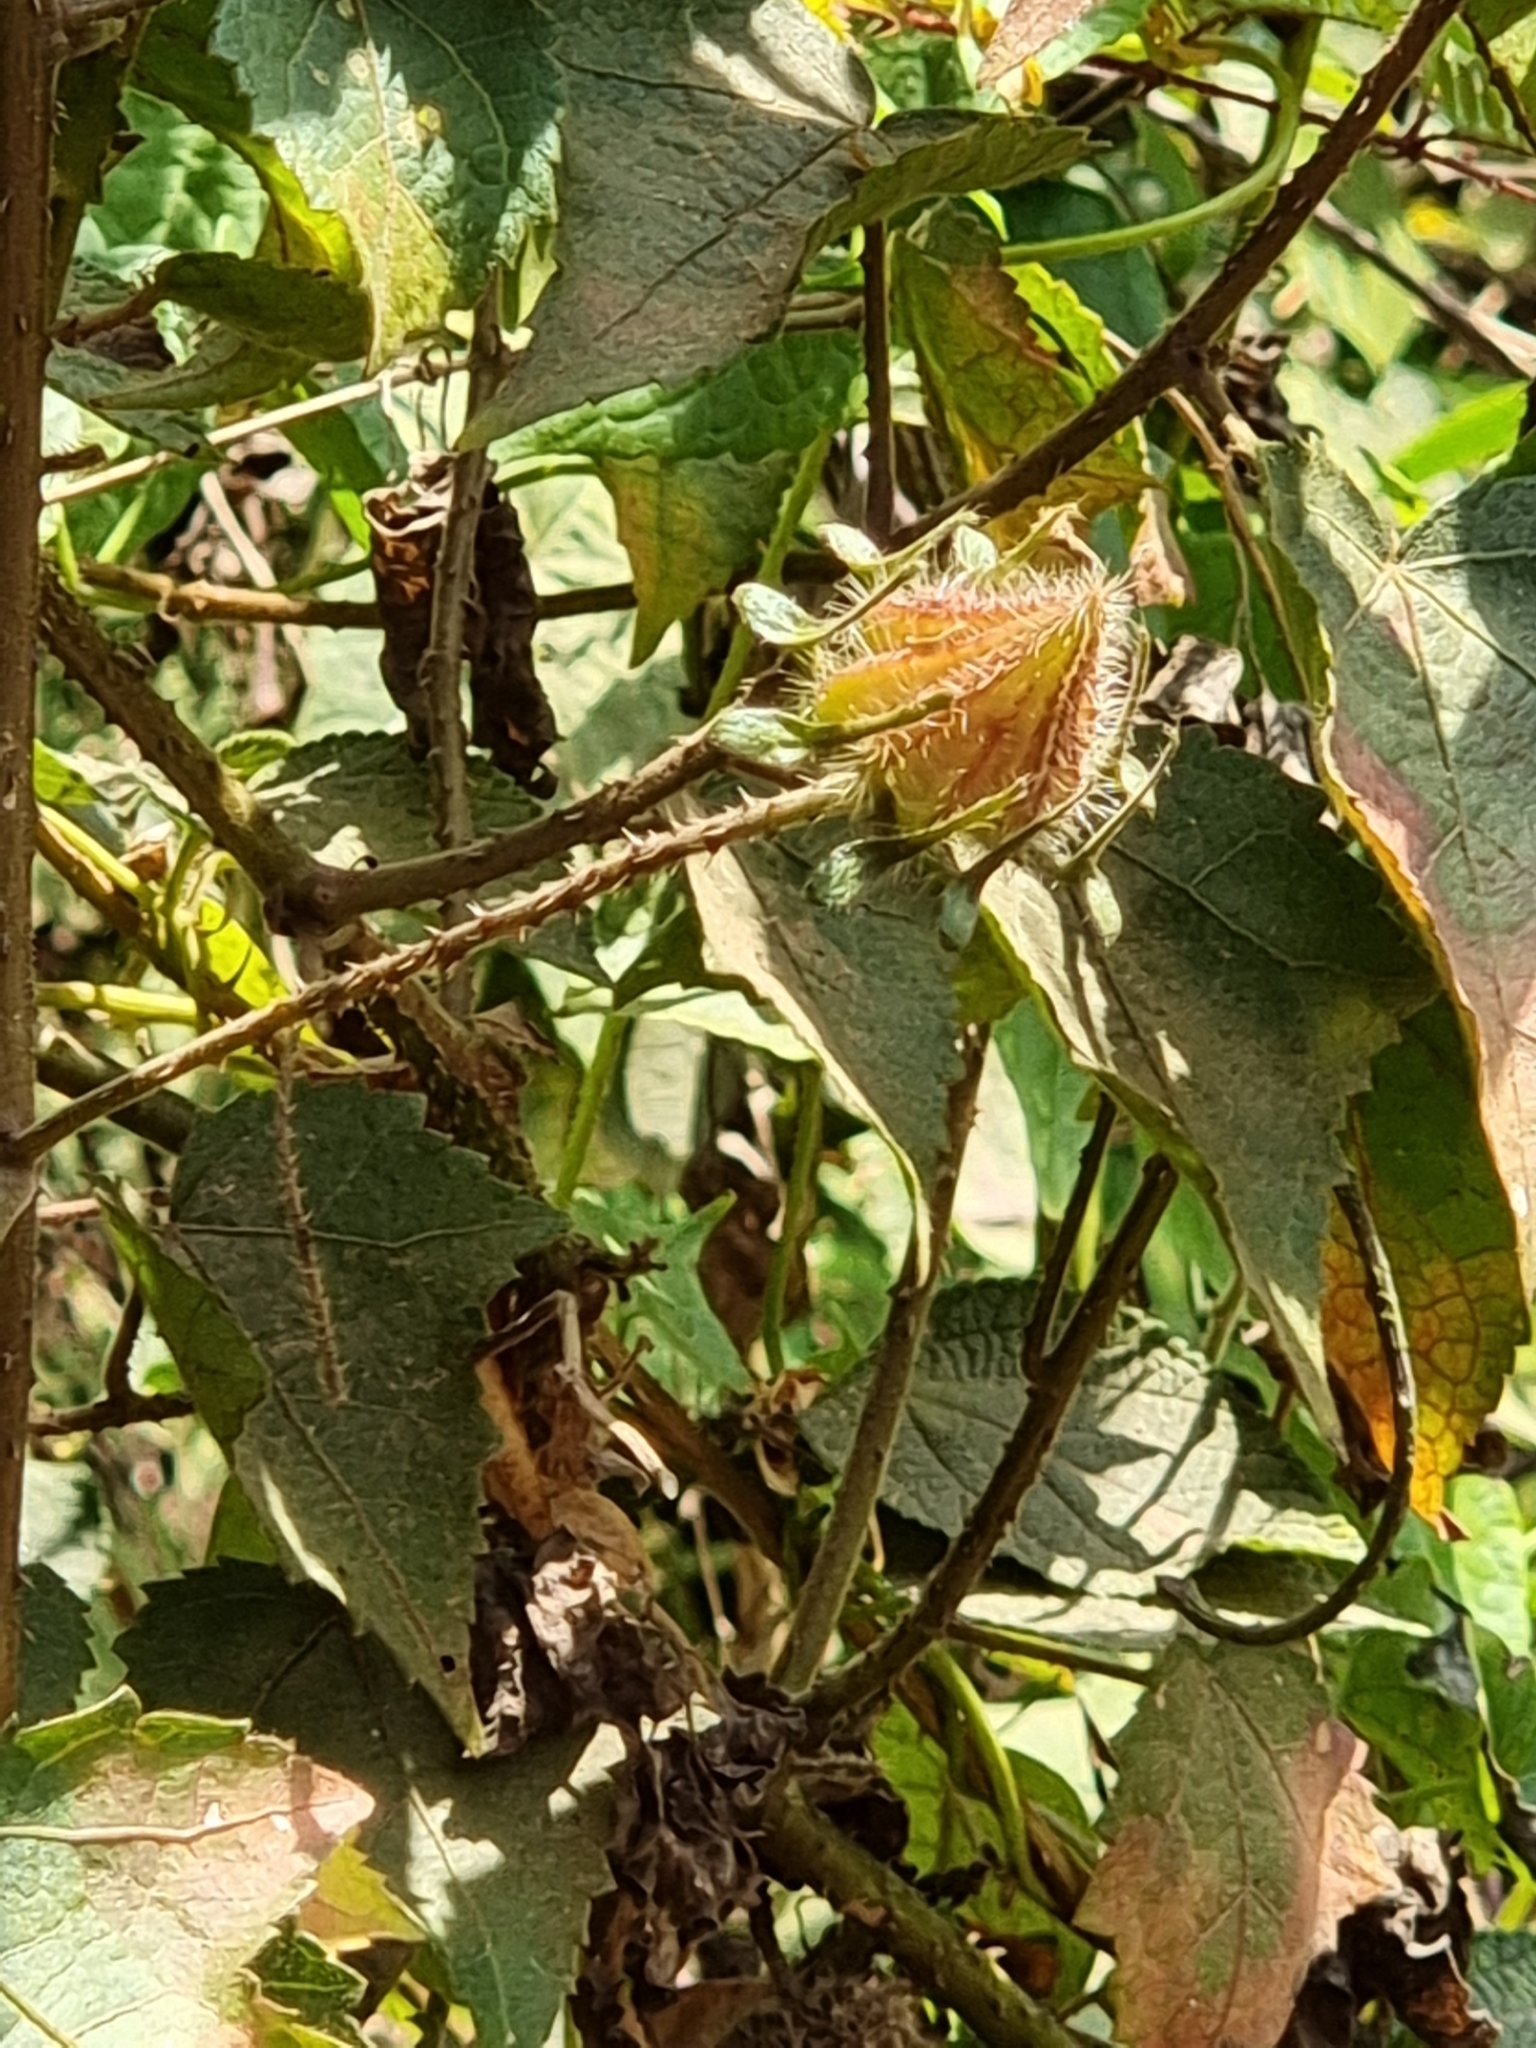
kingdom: Plantae
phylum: Tracheophyta
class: Magnoliopsida
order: Malvales
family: Malvaceae
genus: Hibiscus
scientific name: Hibiscus surattensis
